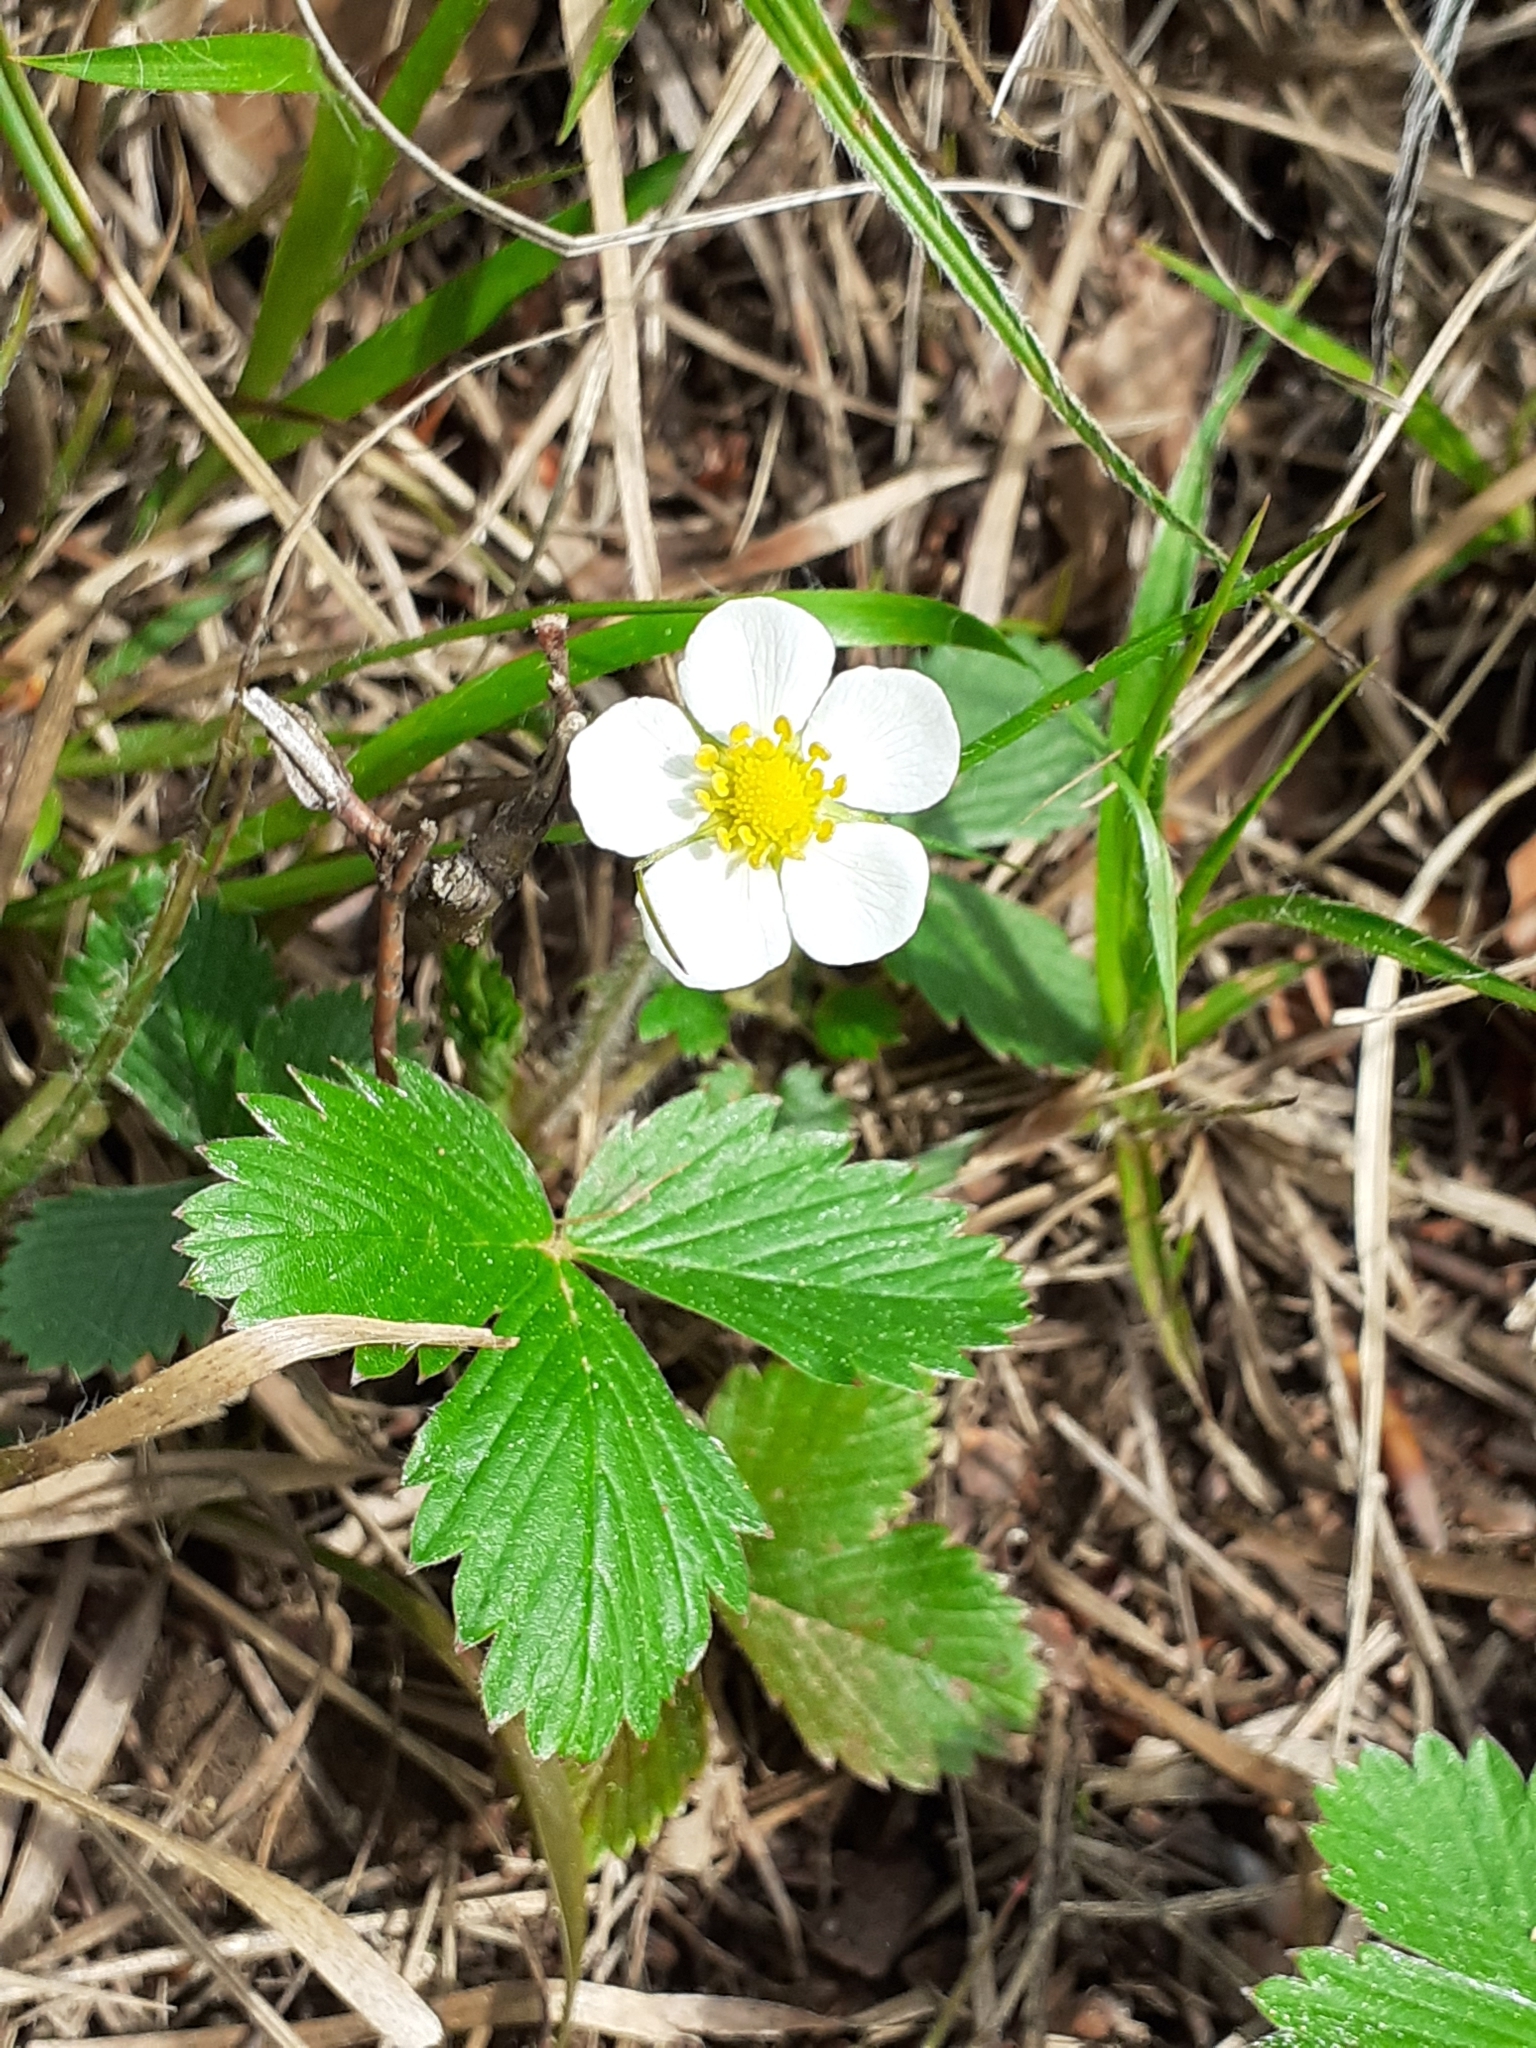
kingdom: Plantae
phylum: Tracheophyta
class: Magnoliopsida
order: Rosales
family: Rosaceae
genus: Fragaria
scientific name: Fragaria vesca
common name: Wild strawberry
